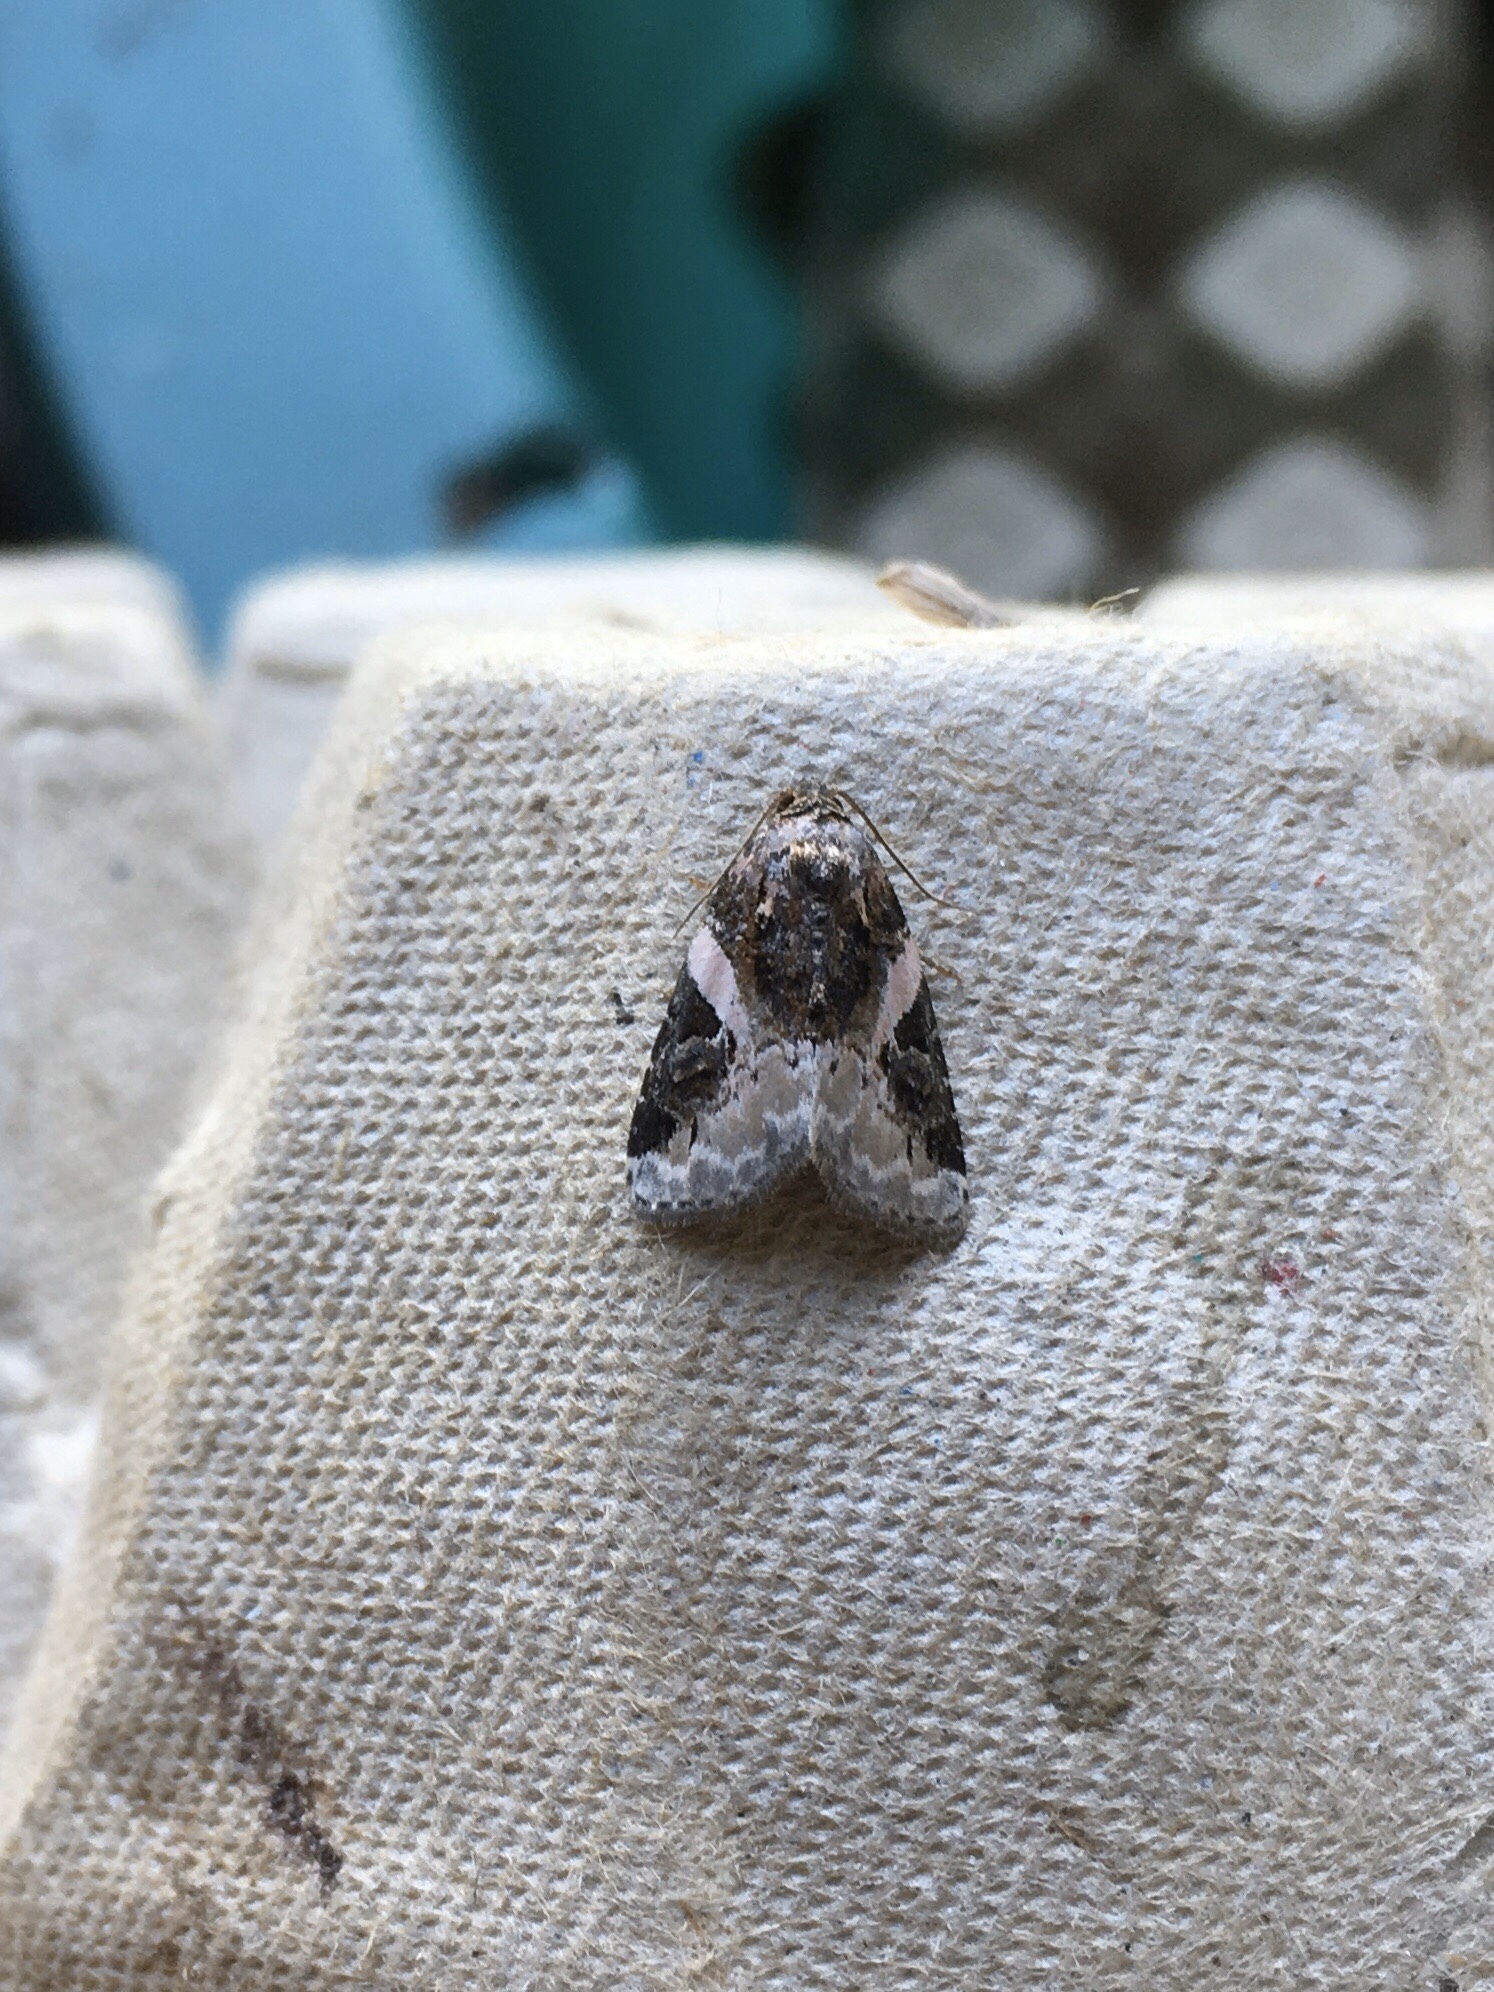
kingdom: Animalia
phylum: Arthropoda
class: Insecta
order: Lepidoptera
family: Noctuidae
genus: Pseudeustrotia
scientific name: Pseudeustrotia carneola
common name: Pink-barred lithacodia moth
